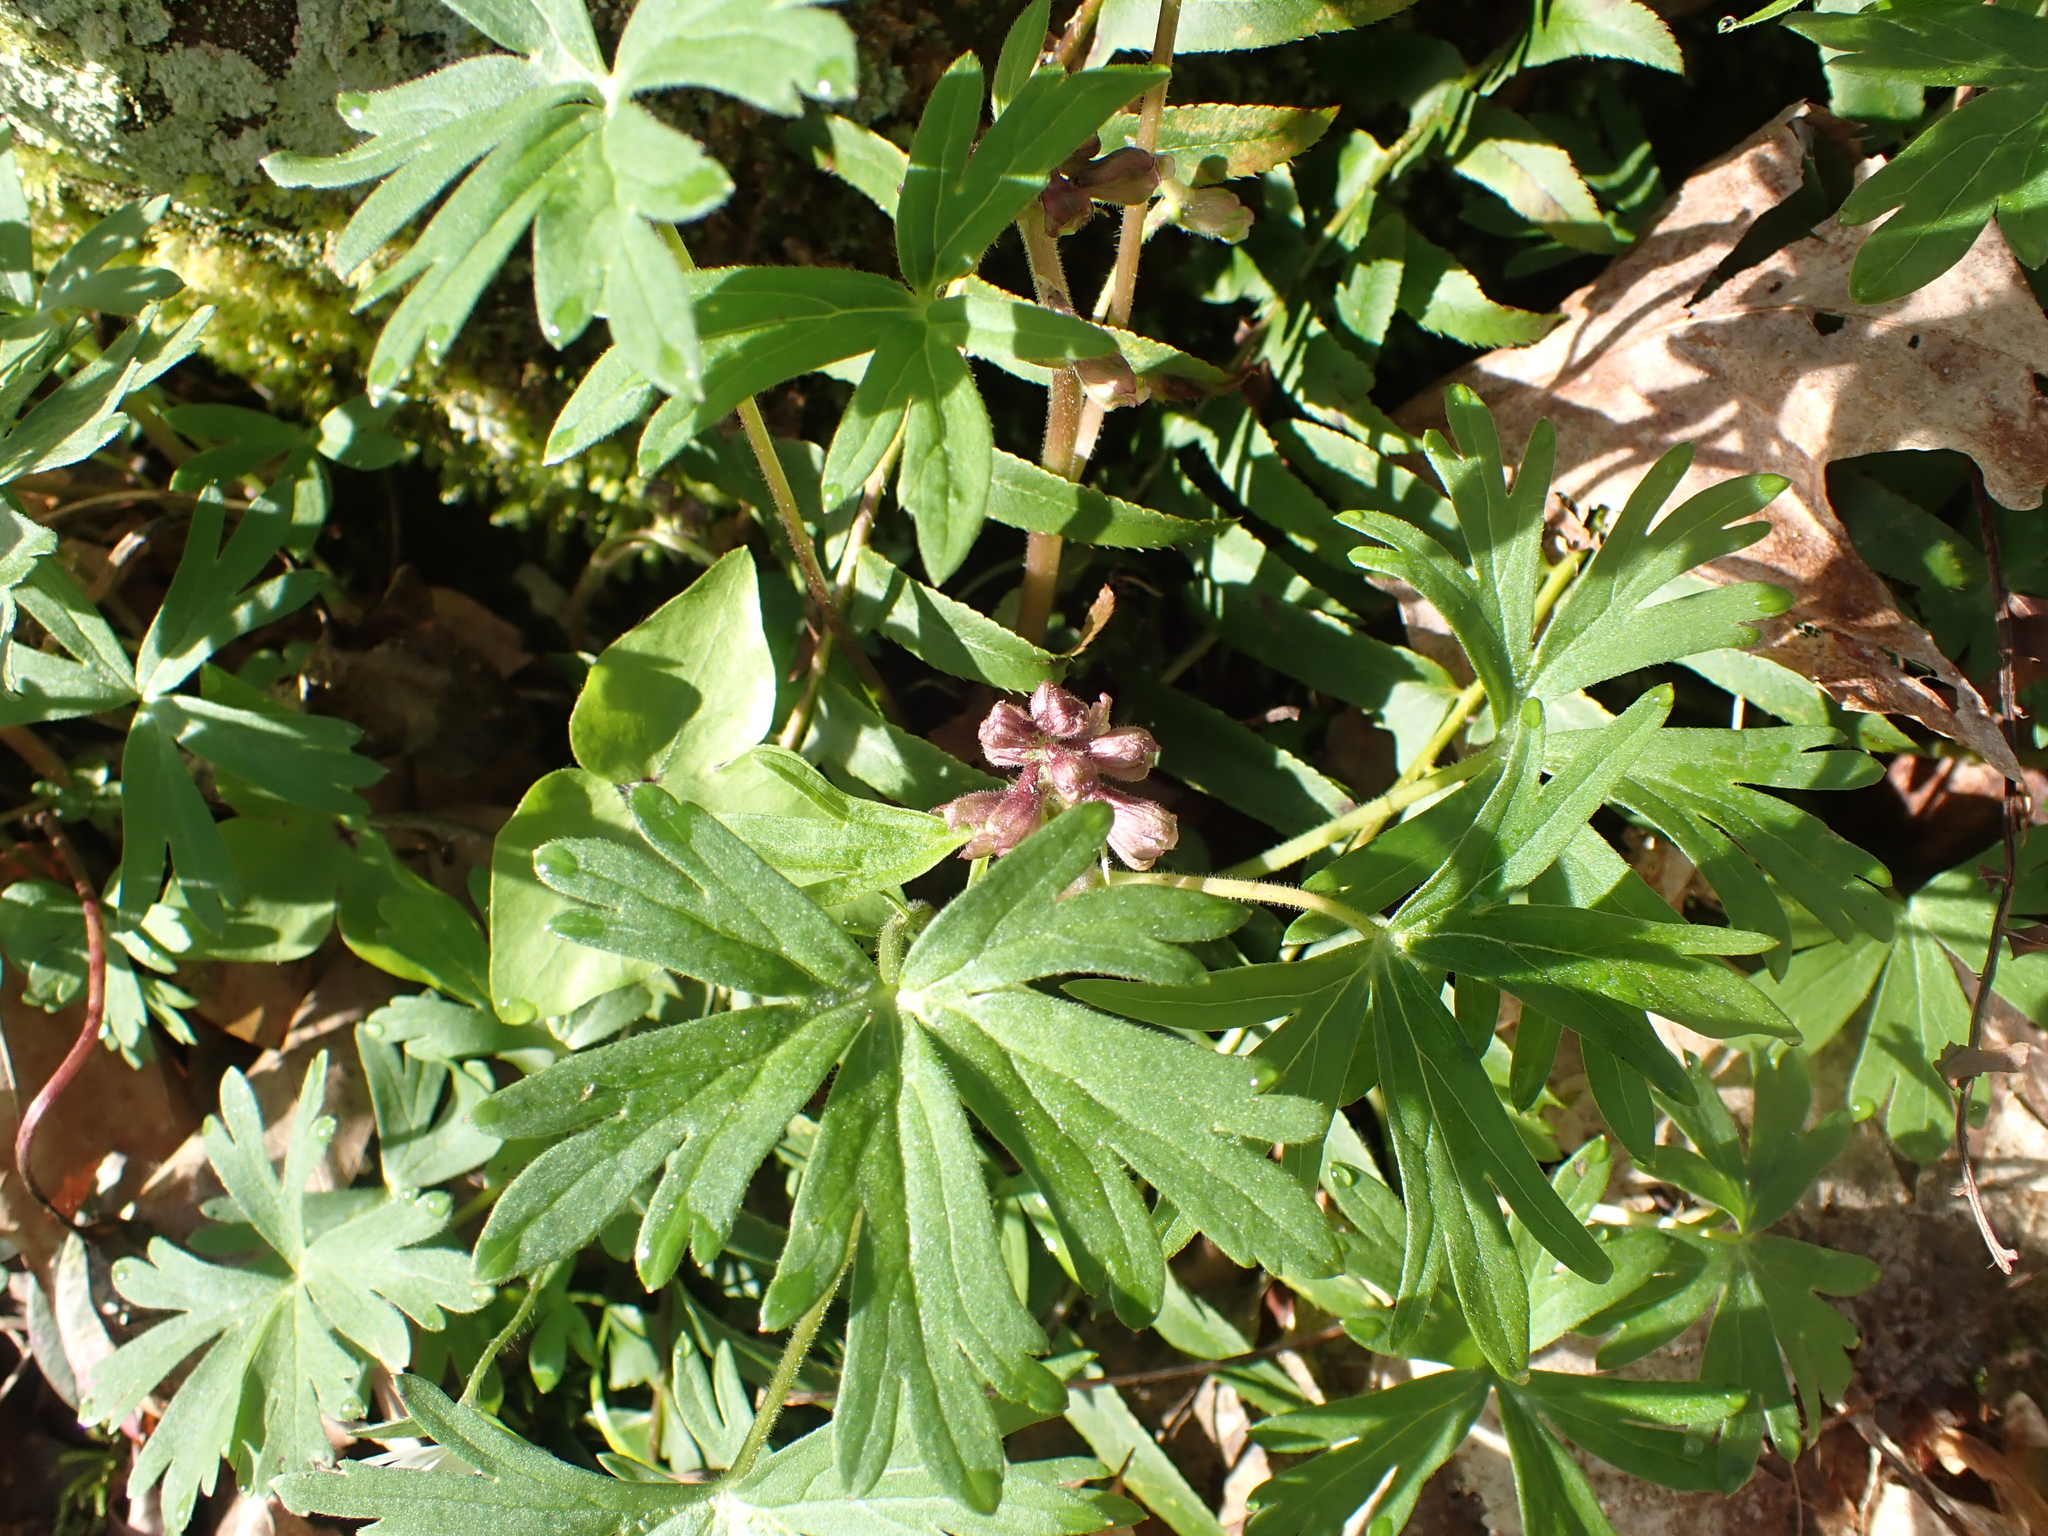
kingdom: Plantae
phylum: Tracheophyta
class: Magnoliopsida
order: Ranunculales
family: Ranunculaceae
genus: Delphinium
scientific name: Delphinium tricorne
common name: Dwarf larkspur
